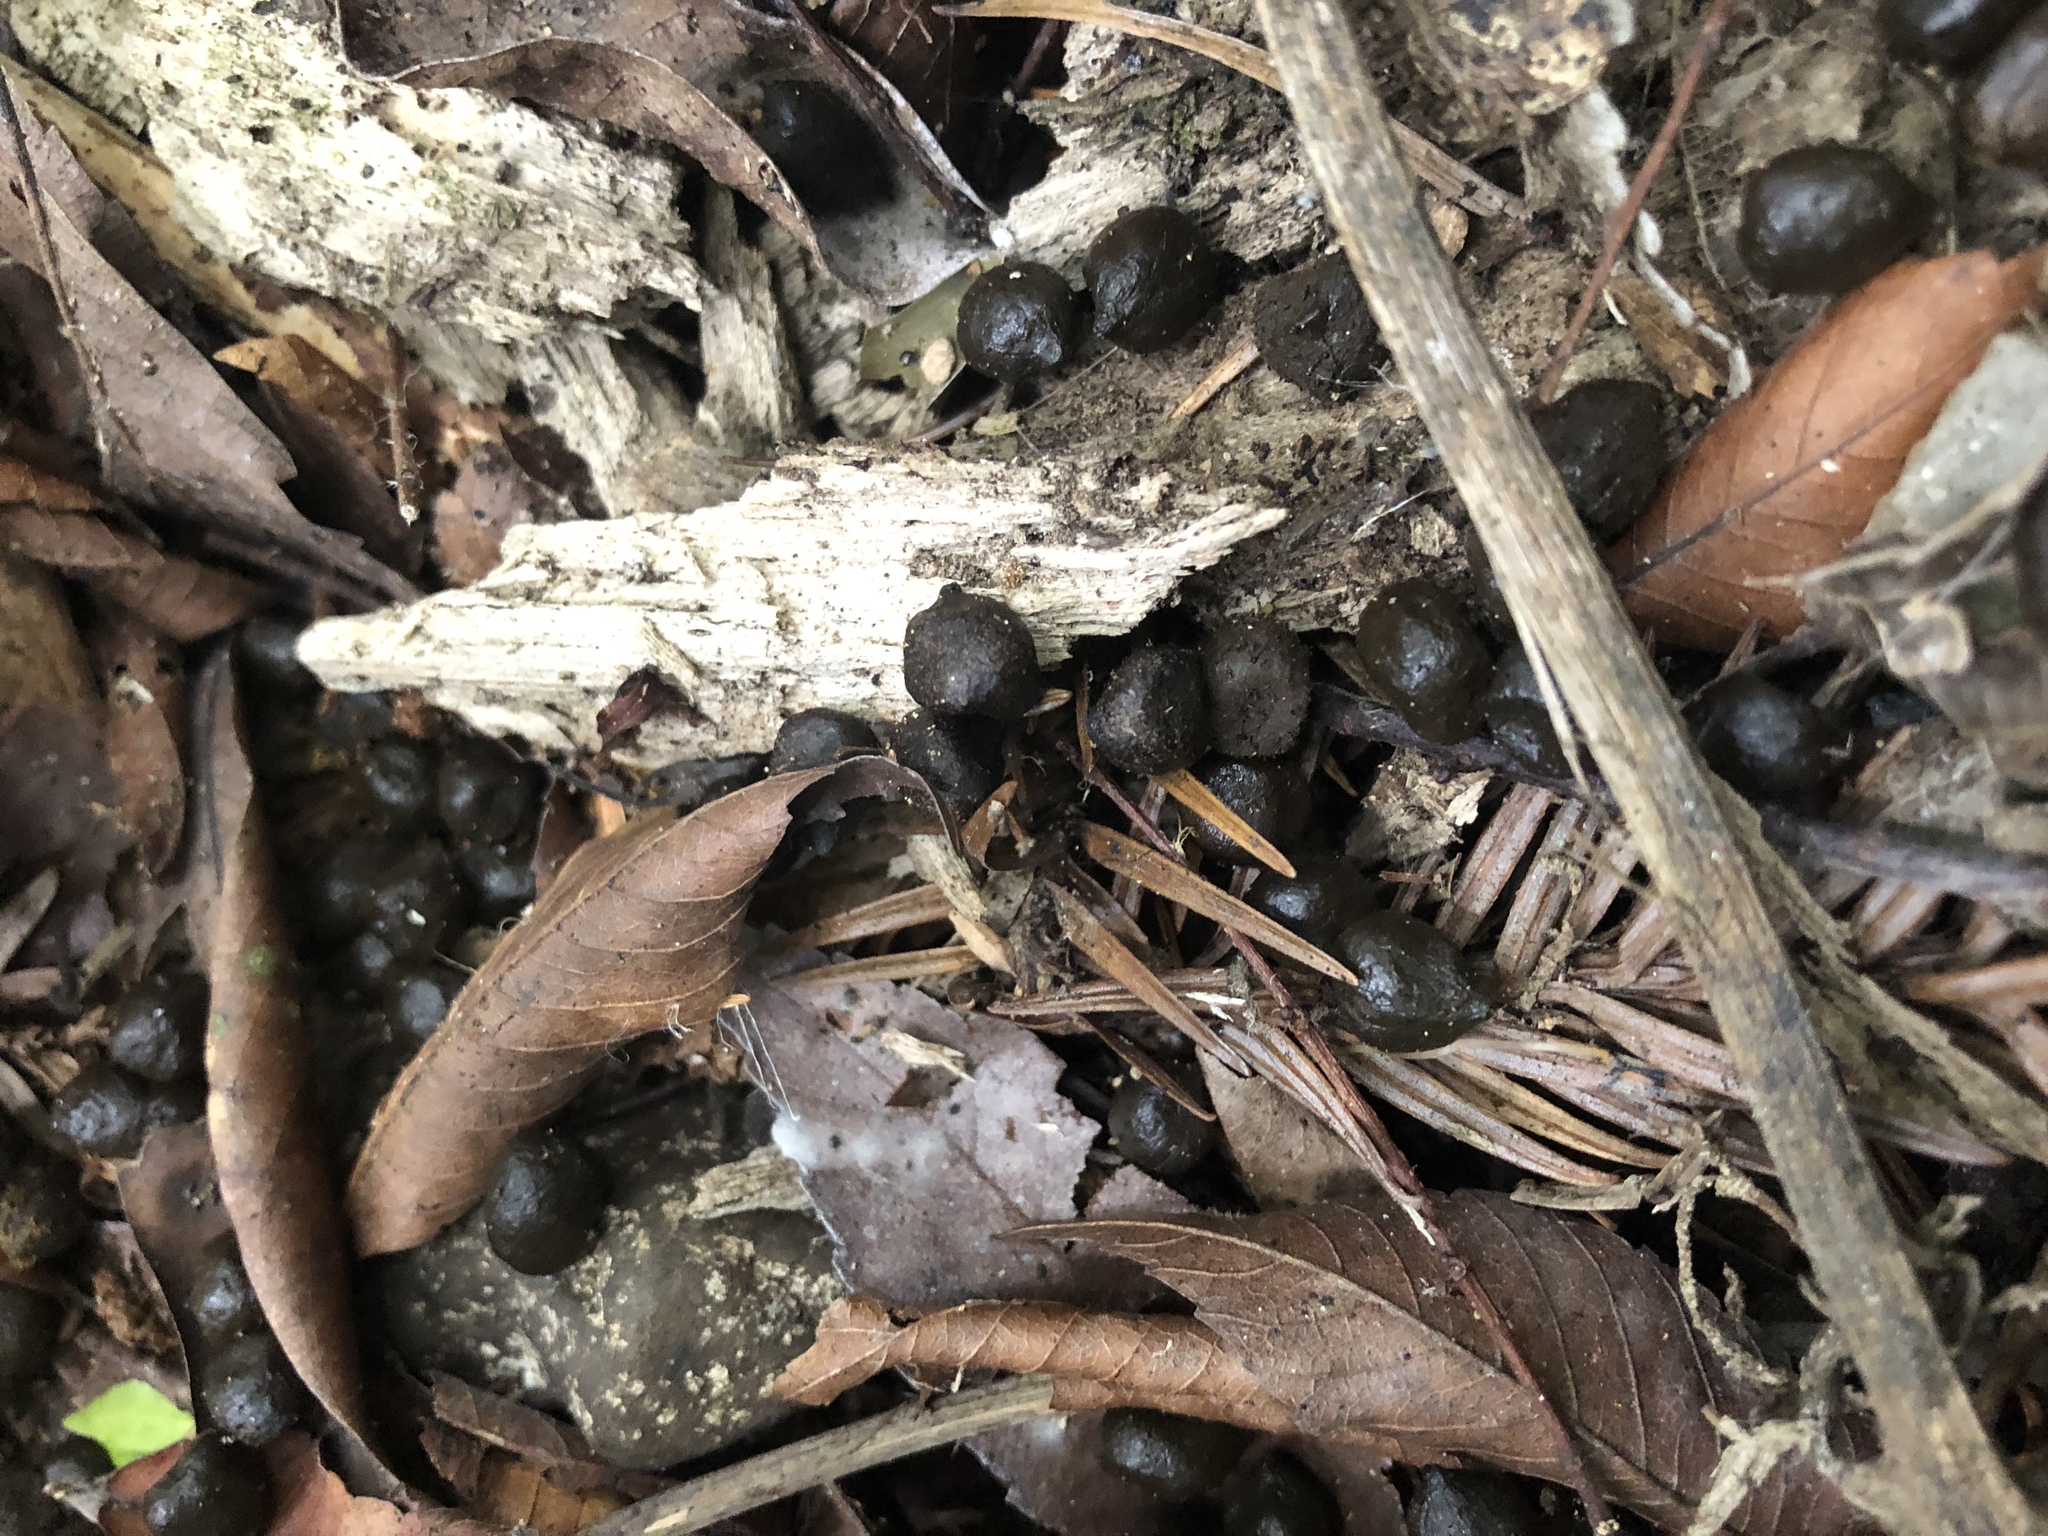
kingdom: Animalia
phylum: Chordata
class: Mammalia
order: Artiodactyla
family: Cervidae
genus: Muntiacus
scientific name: Muntiacus reevesi
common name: Reeves' muntjac
